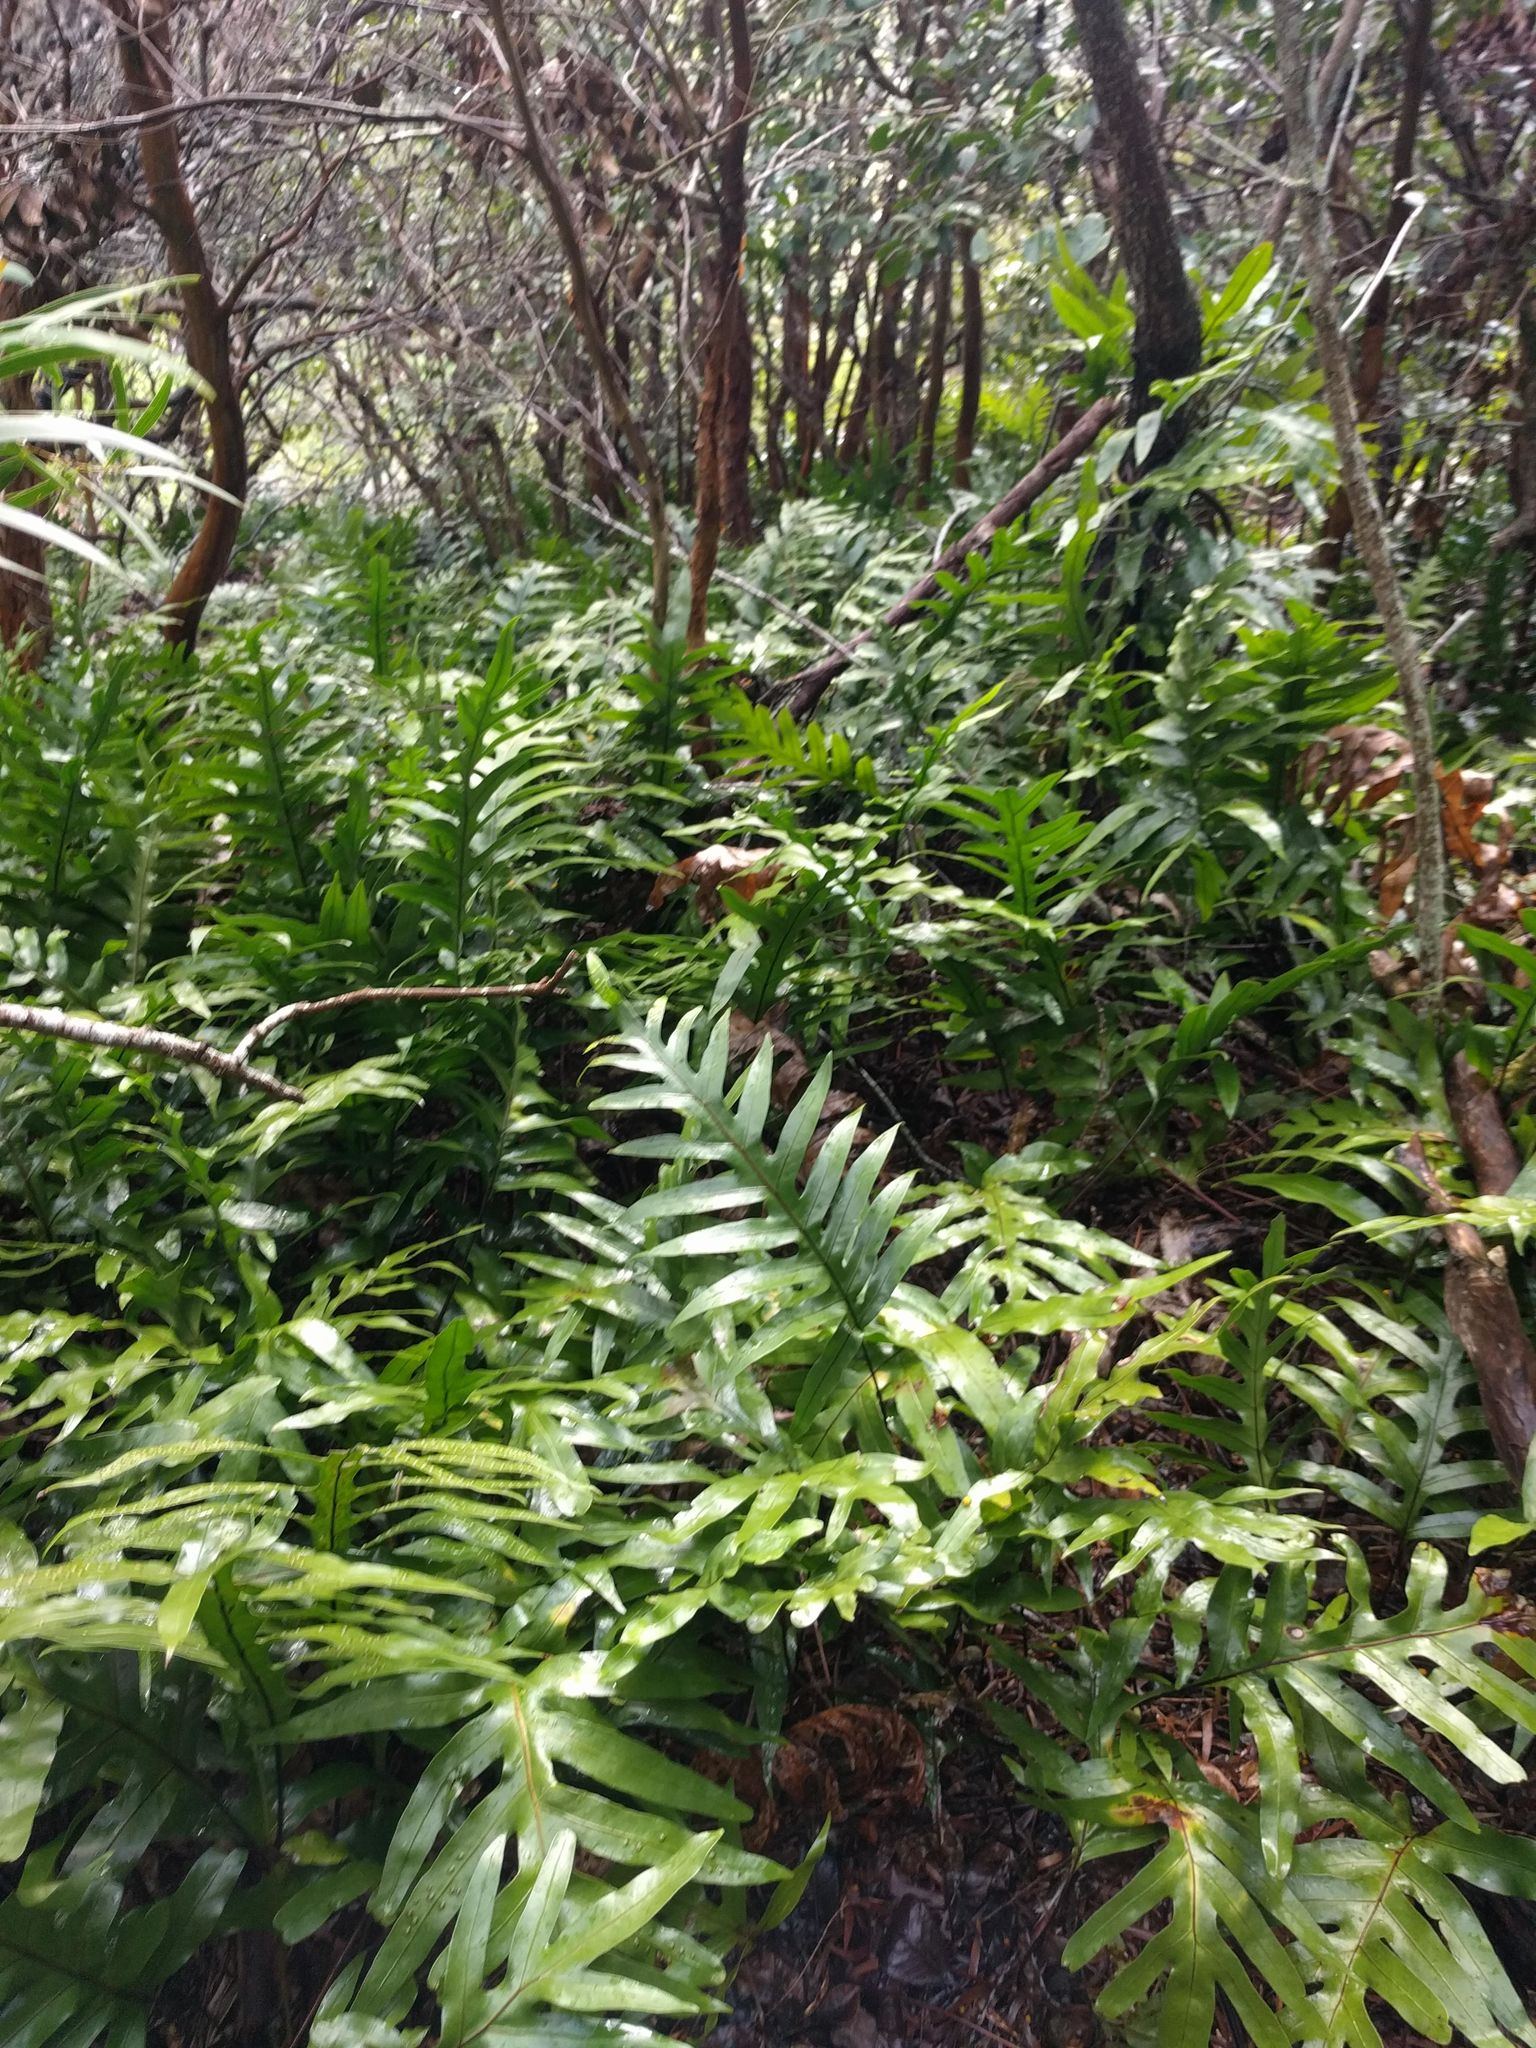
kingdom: Plantae
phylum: Tracheophyta
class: Polypodiopsida
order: Polypodiales
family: Polypodiaceae
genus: Microsorum
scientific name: Microsorum grossum
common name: Musk fern
